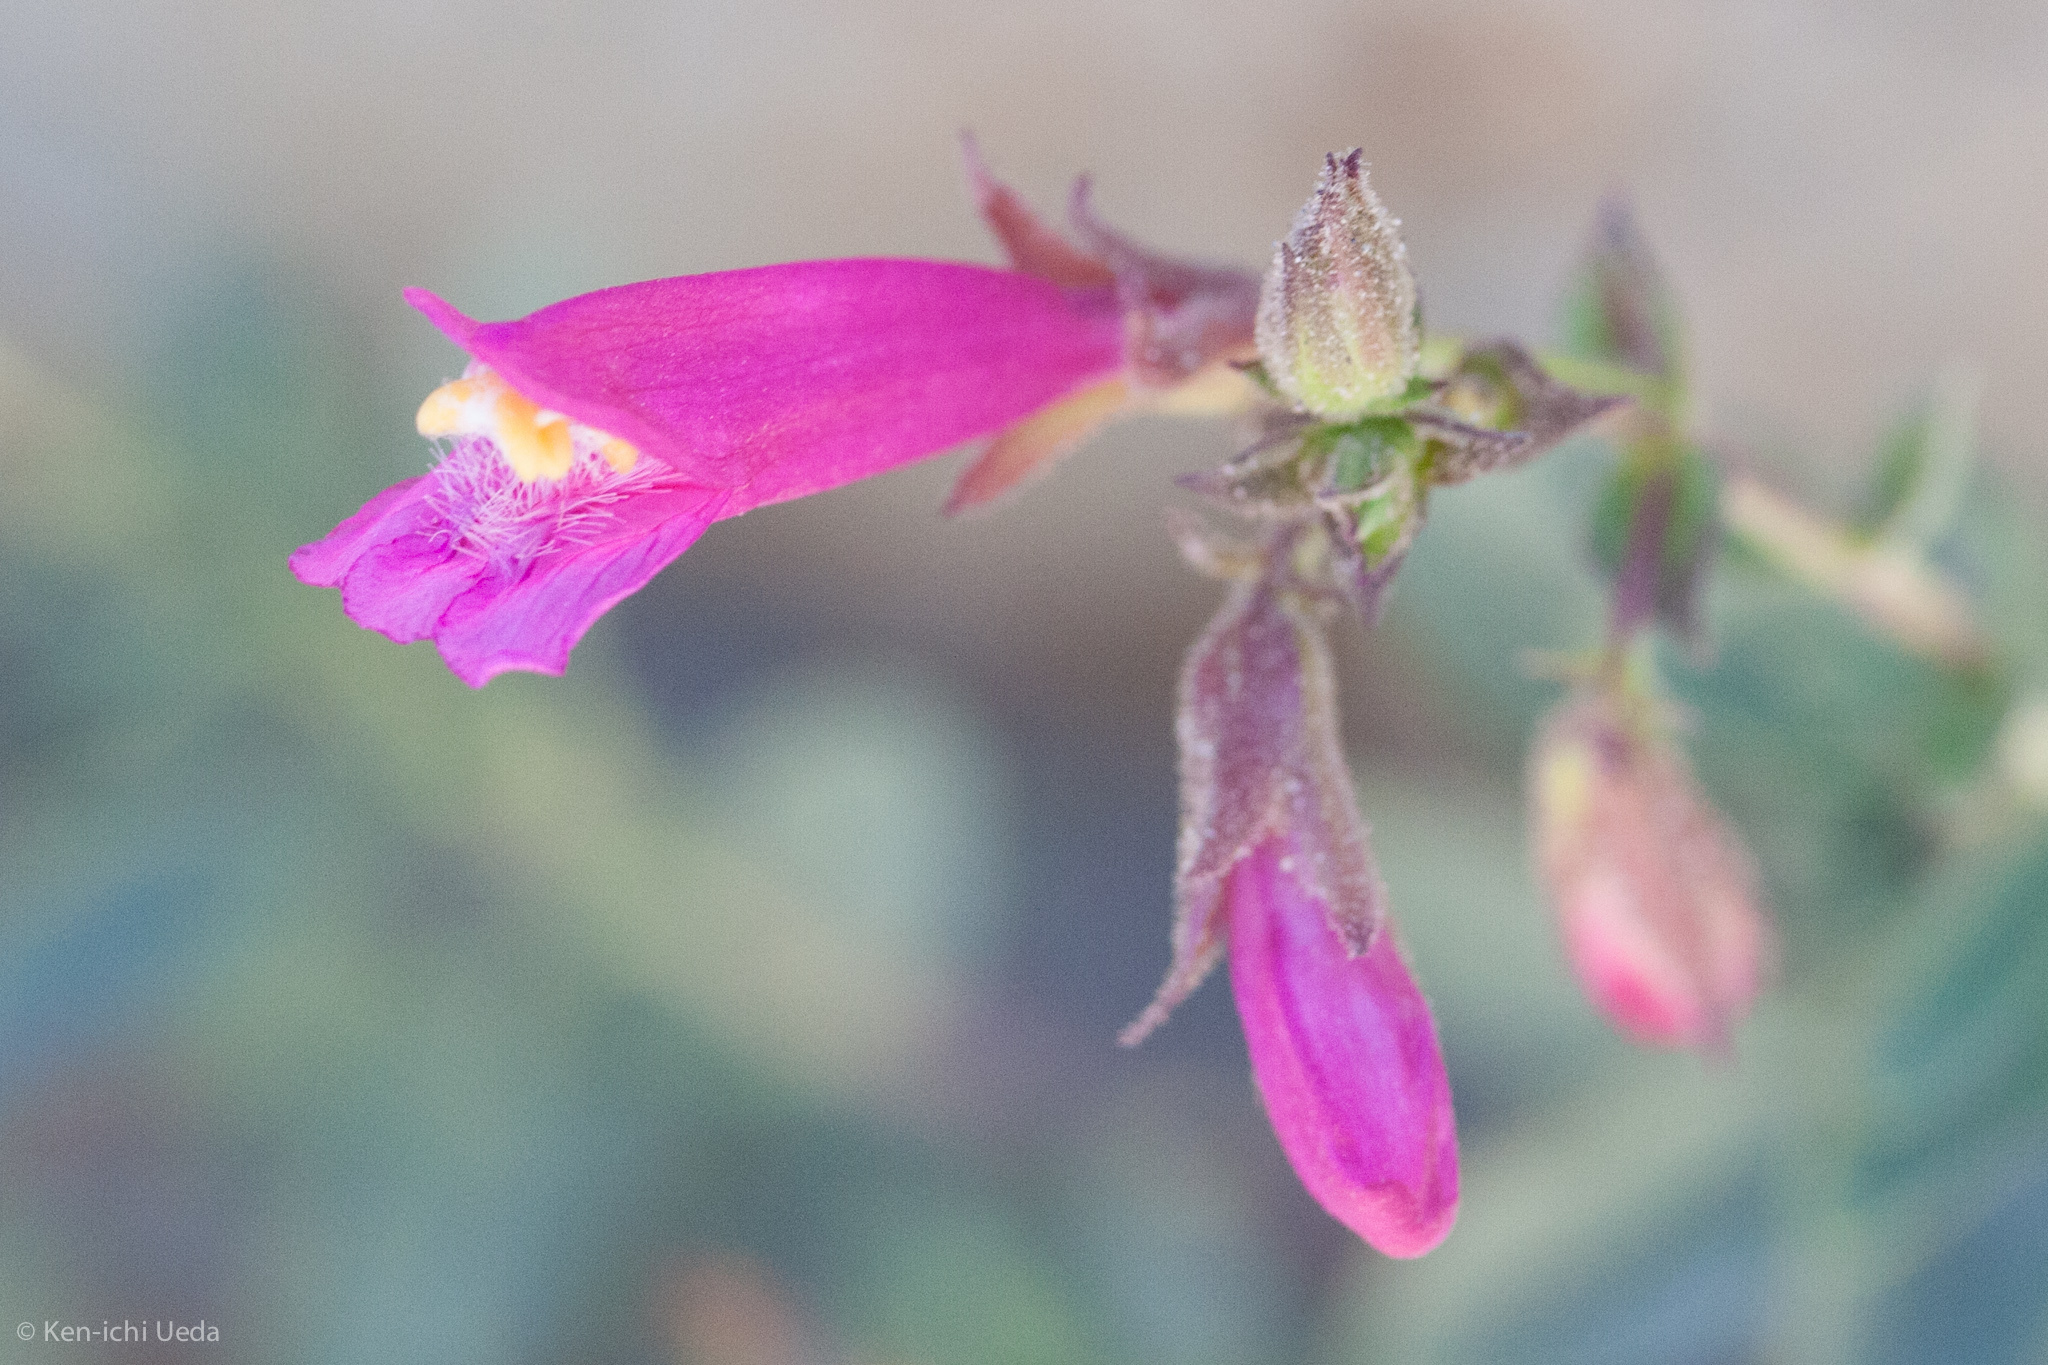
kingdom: Plantae
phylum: Tracheophyta
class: Magnoliopsida
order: Lamiales
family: Plantaginaceae
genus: Penstemon
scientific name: Penstemon newberryi
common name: Mountain-pride
